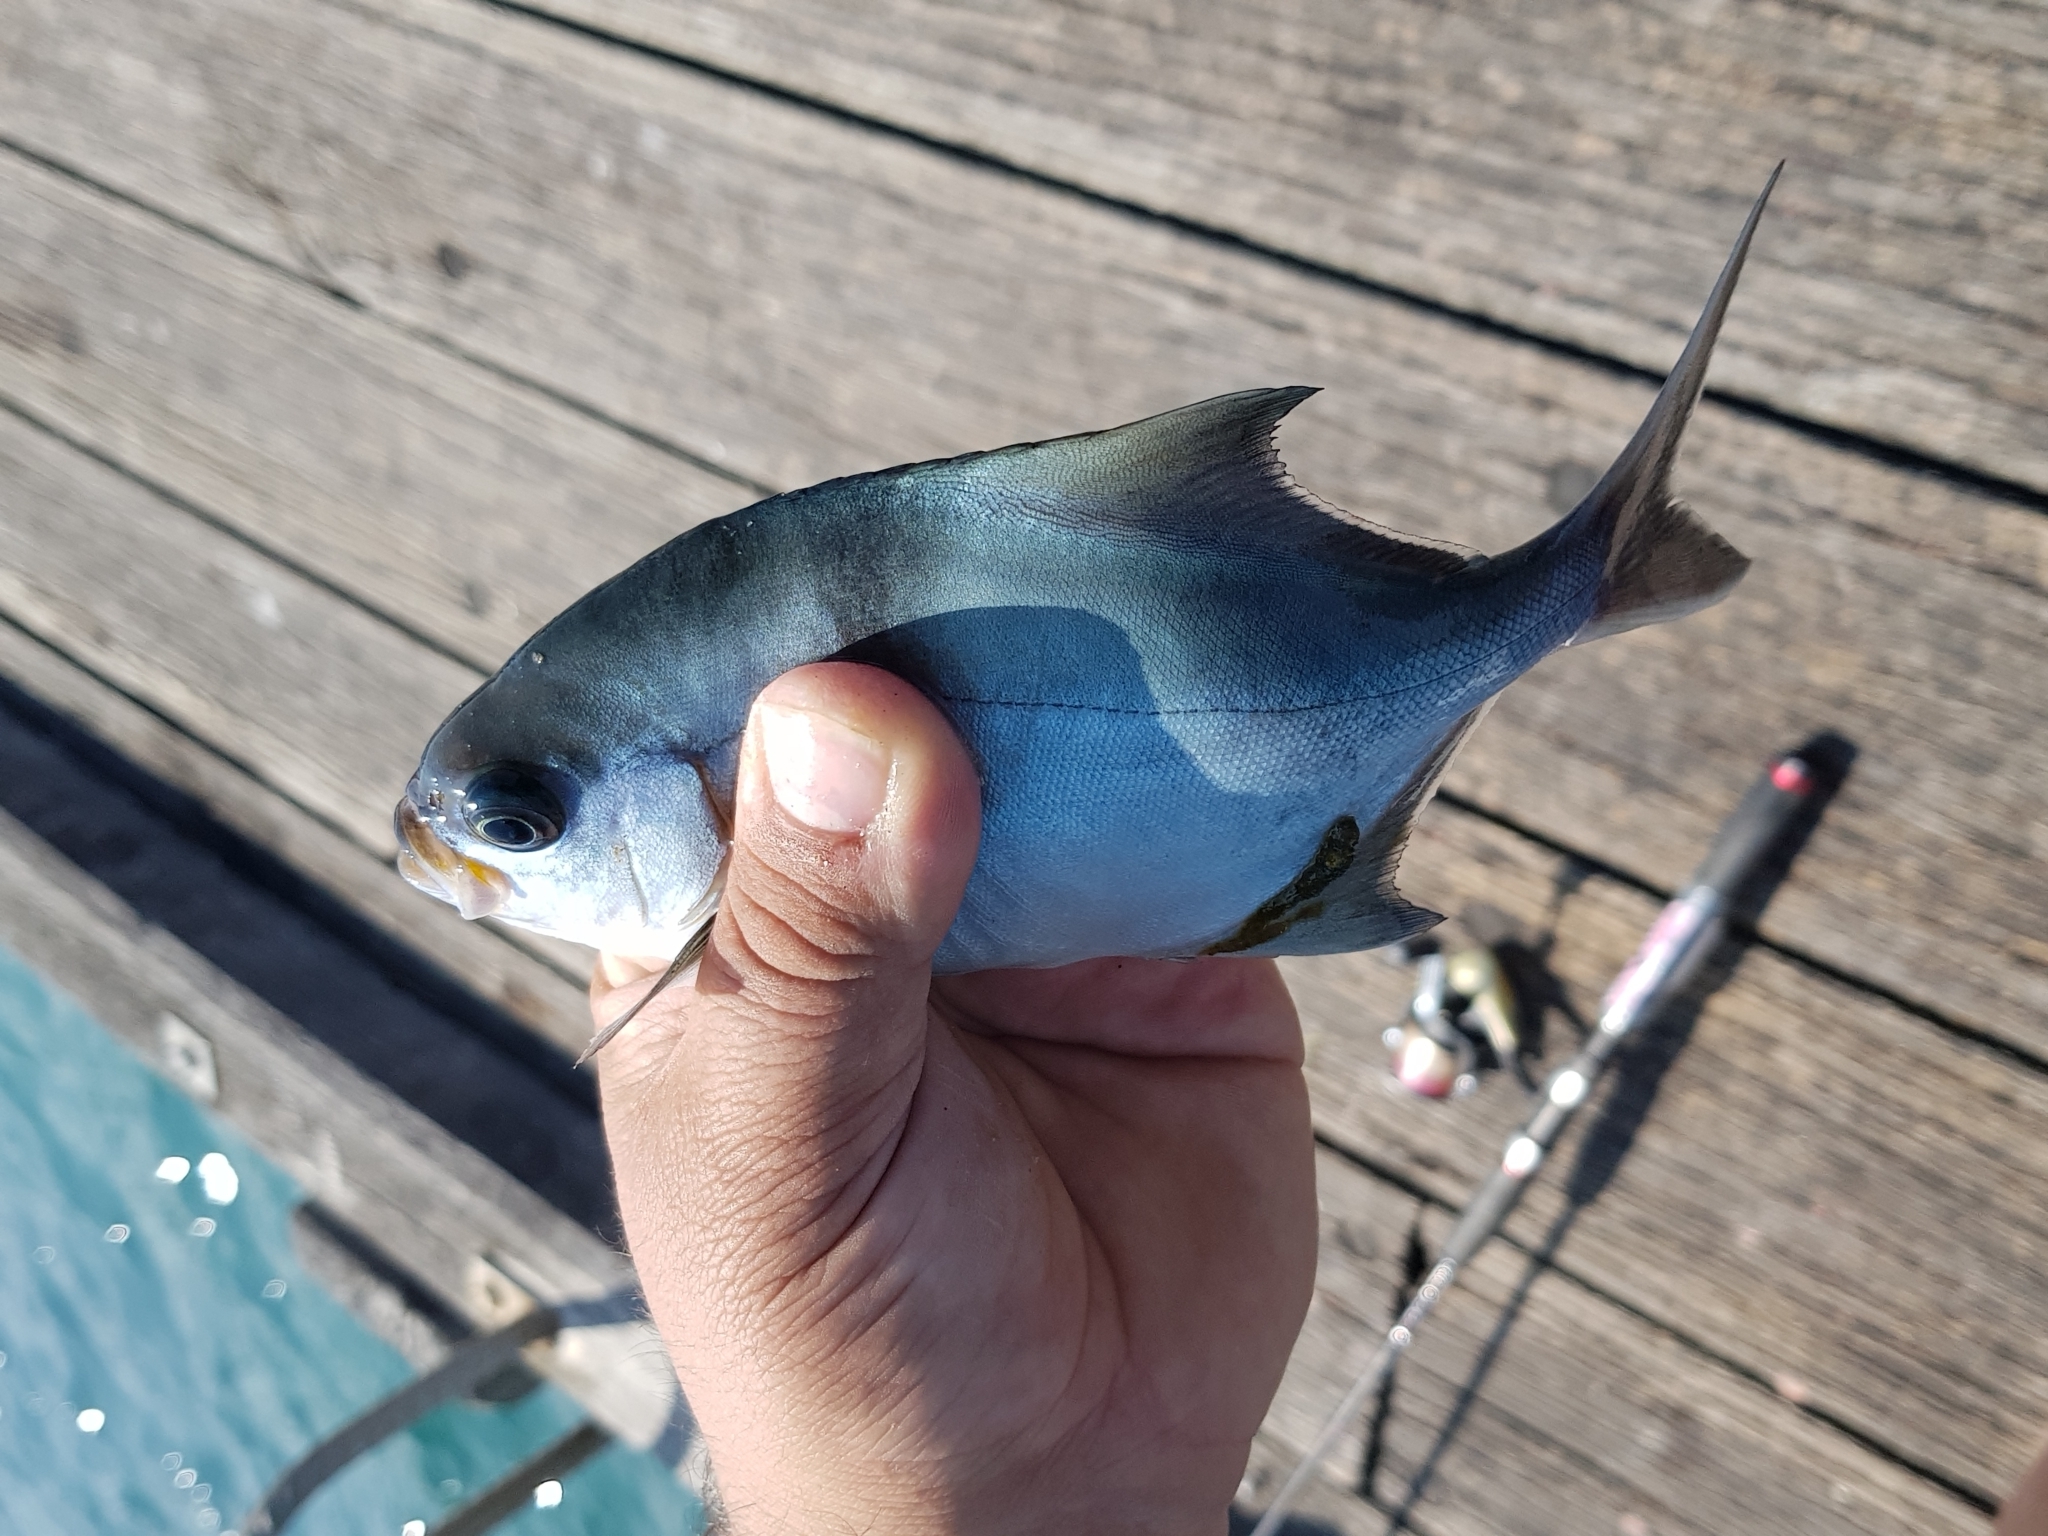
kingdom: Animalia
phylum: Chordata
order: Perciformes
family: Kyphosidae
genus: Scorpis
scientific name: Scorpis aequipinnis
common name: Sea sweep
